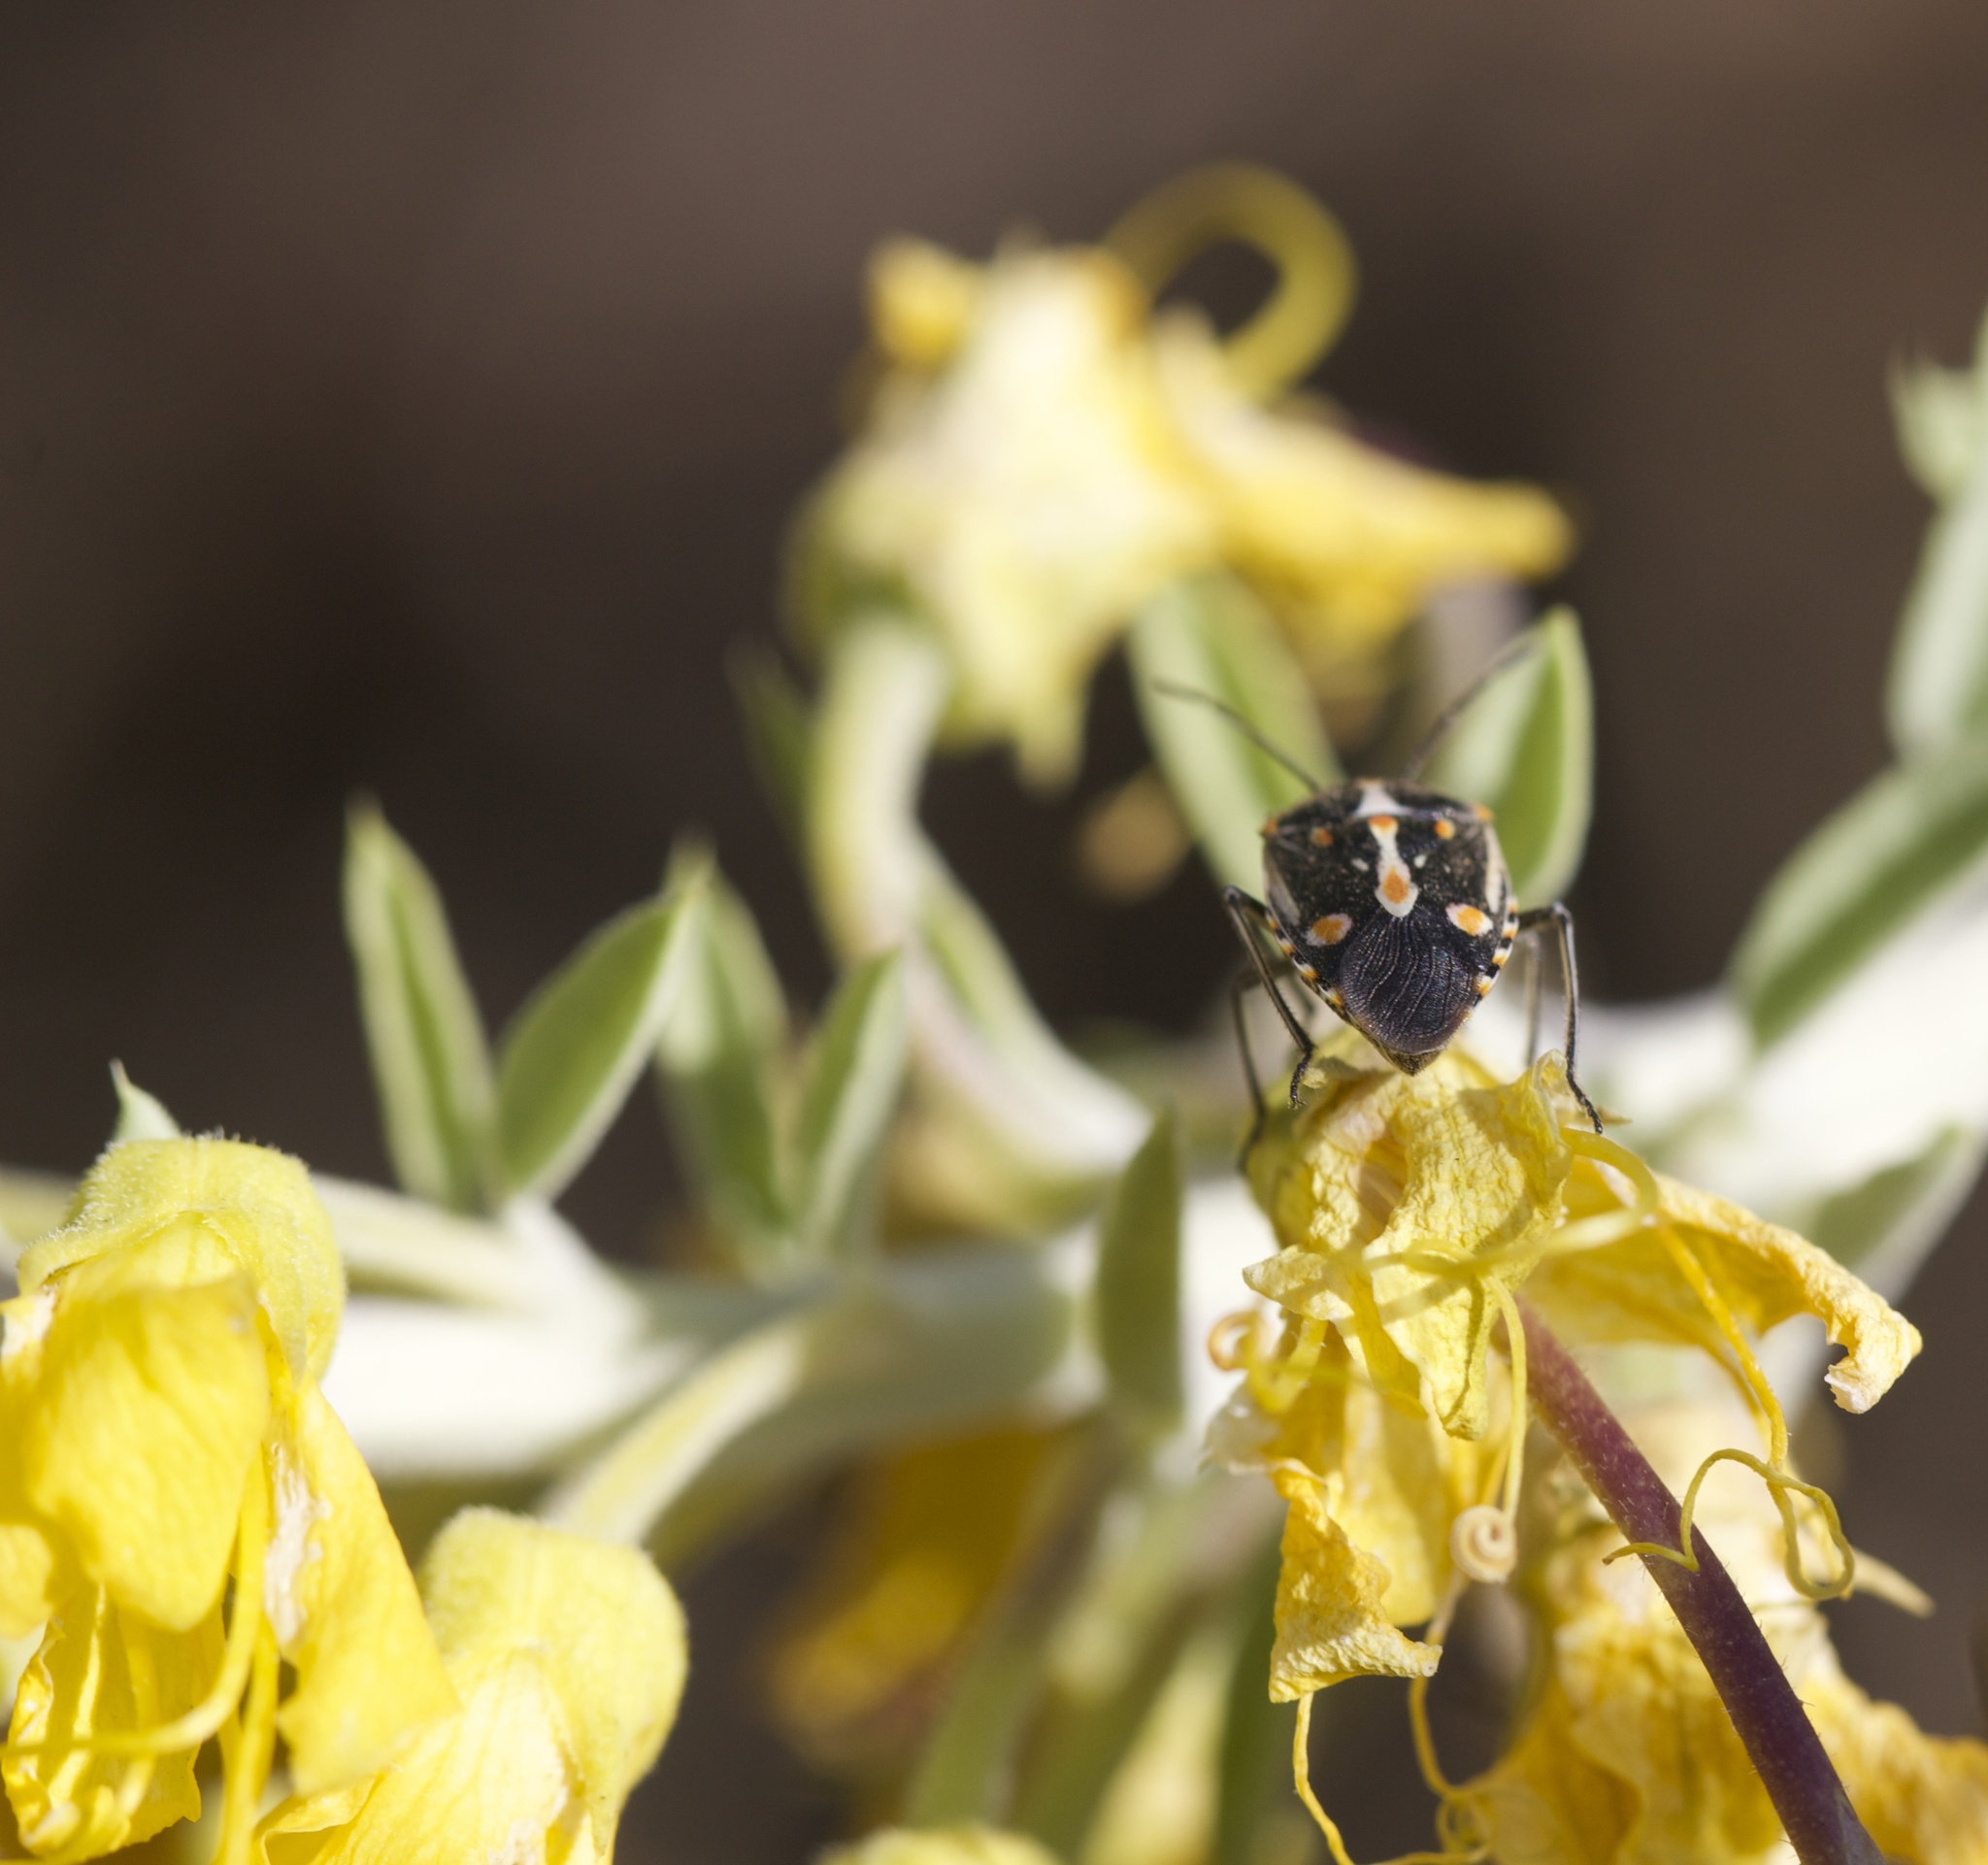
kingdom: Animalia
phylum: Arthropoda
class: Insecta
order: Hemiptera
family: Pentatomidae
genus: Bagrada
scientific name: Bagrada hilaris
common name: Bagrada bug
